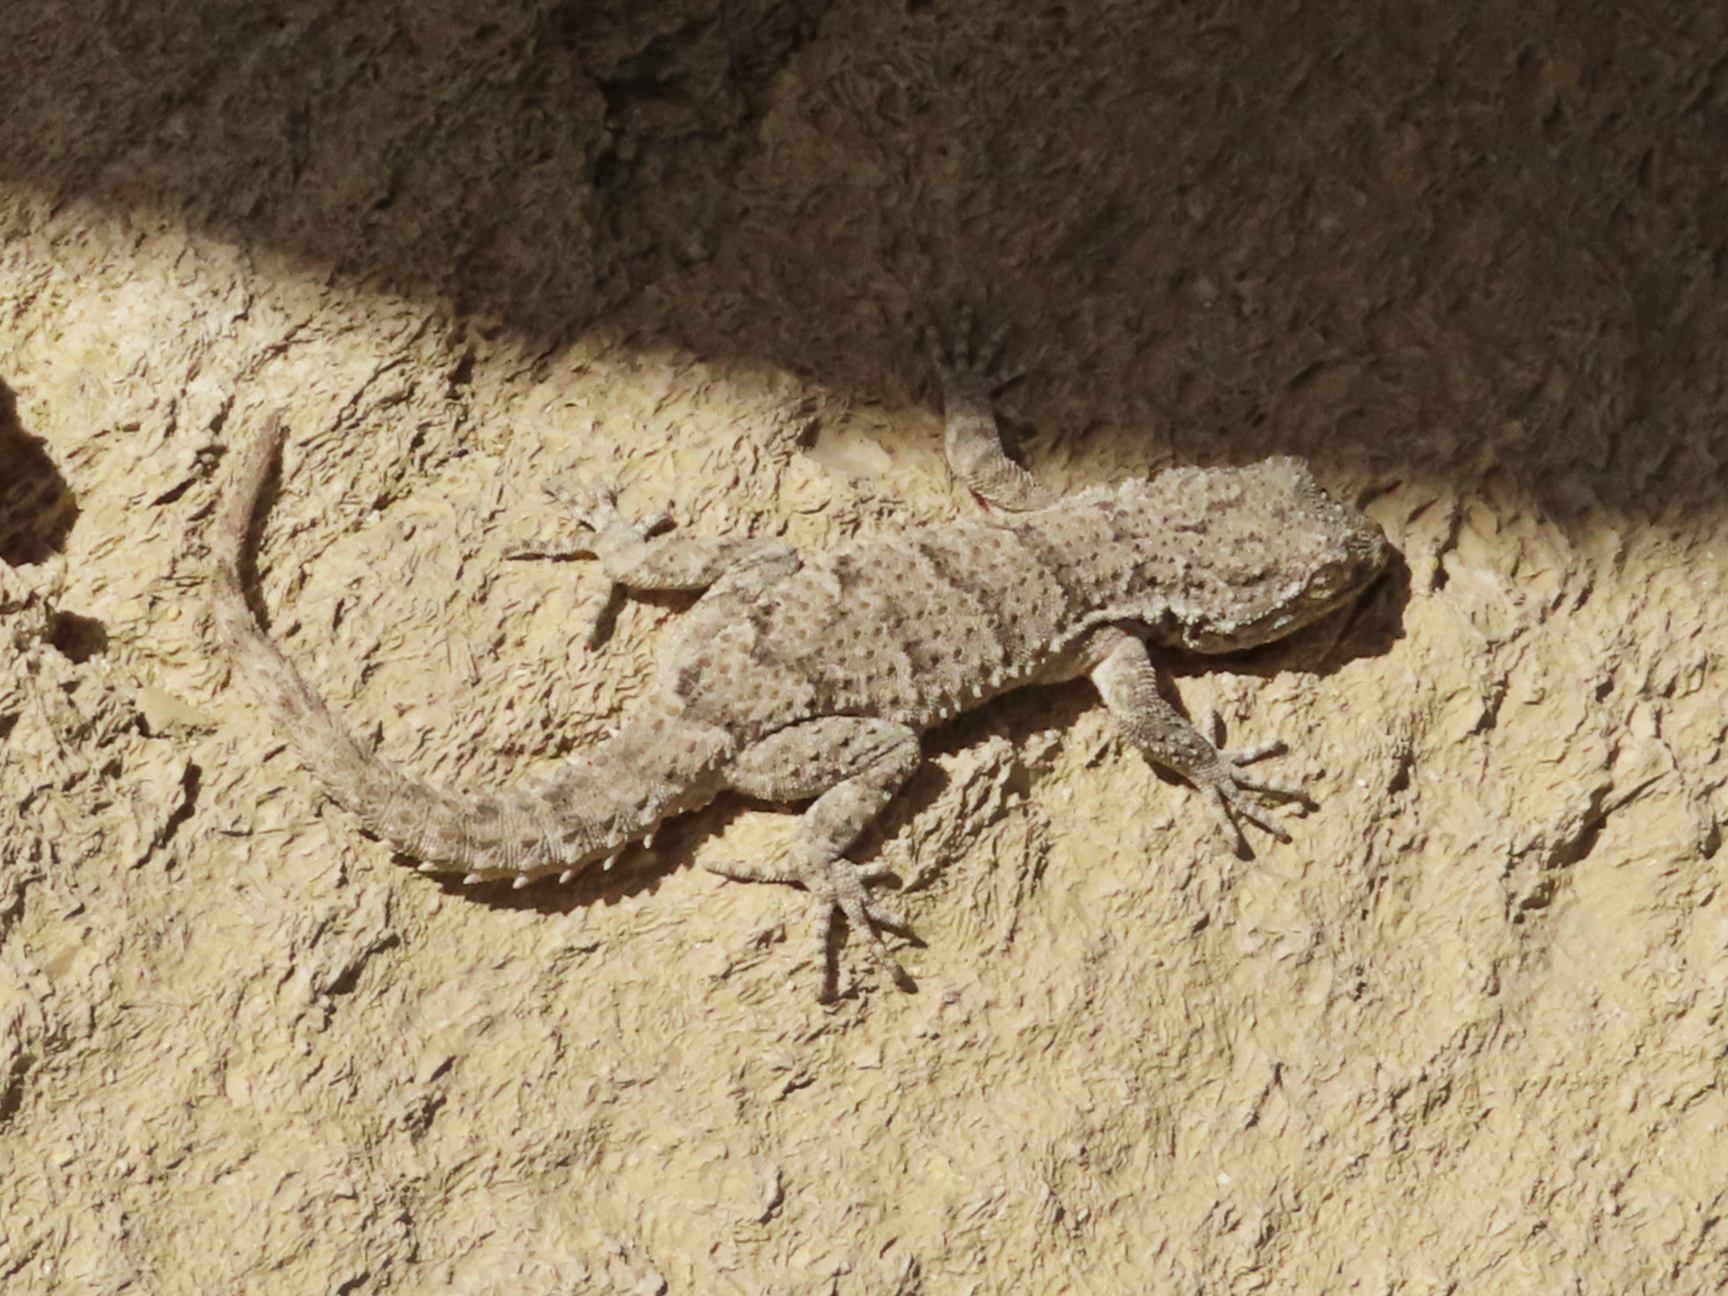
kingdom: Animalia
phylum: Chordata
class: Squamata
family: Gekkonidae
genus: Mediodactylus
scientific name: Mediodactylus russowii
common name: Grey thin-toed gecko
